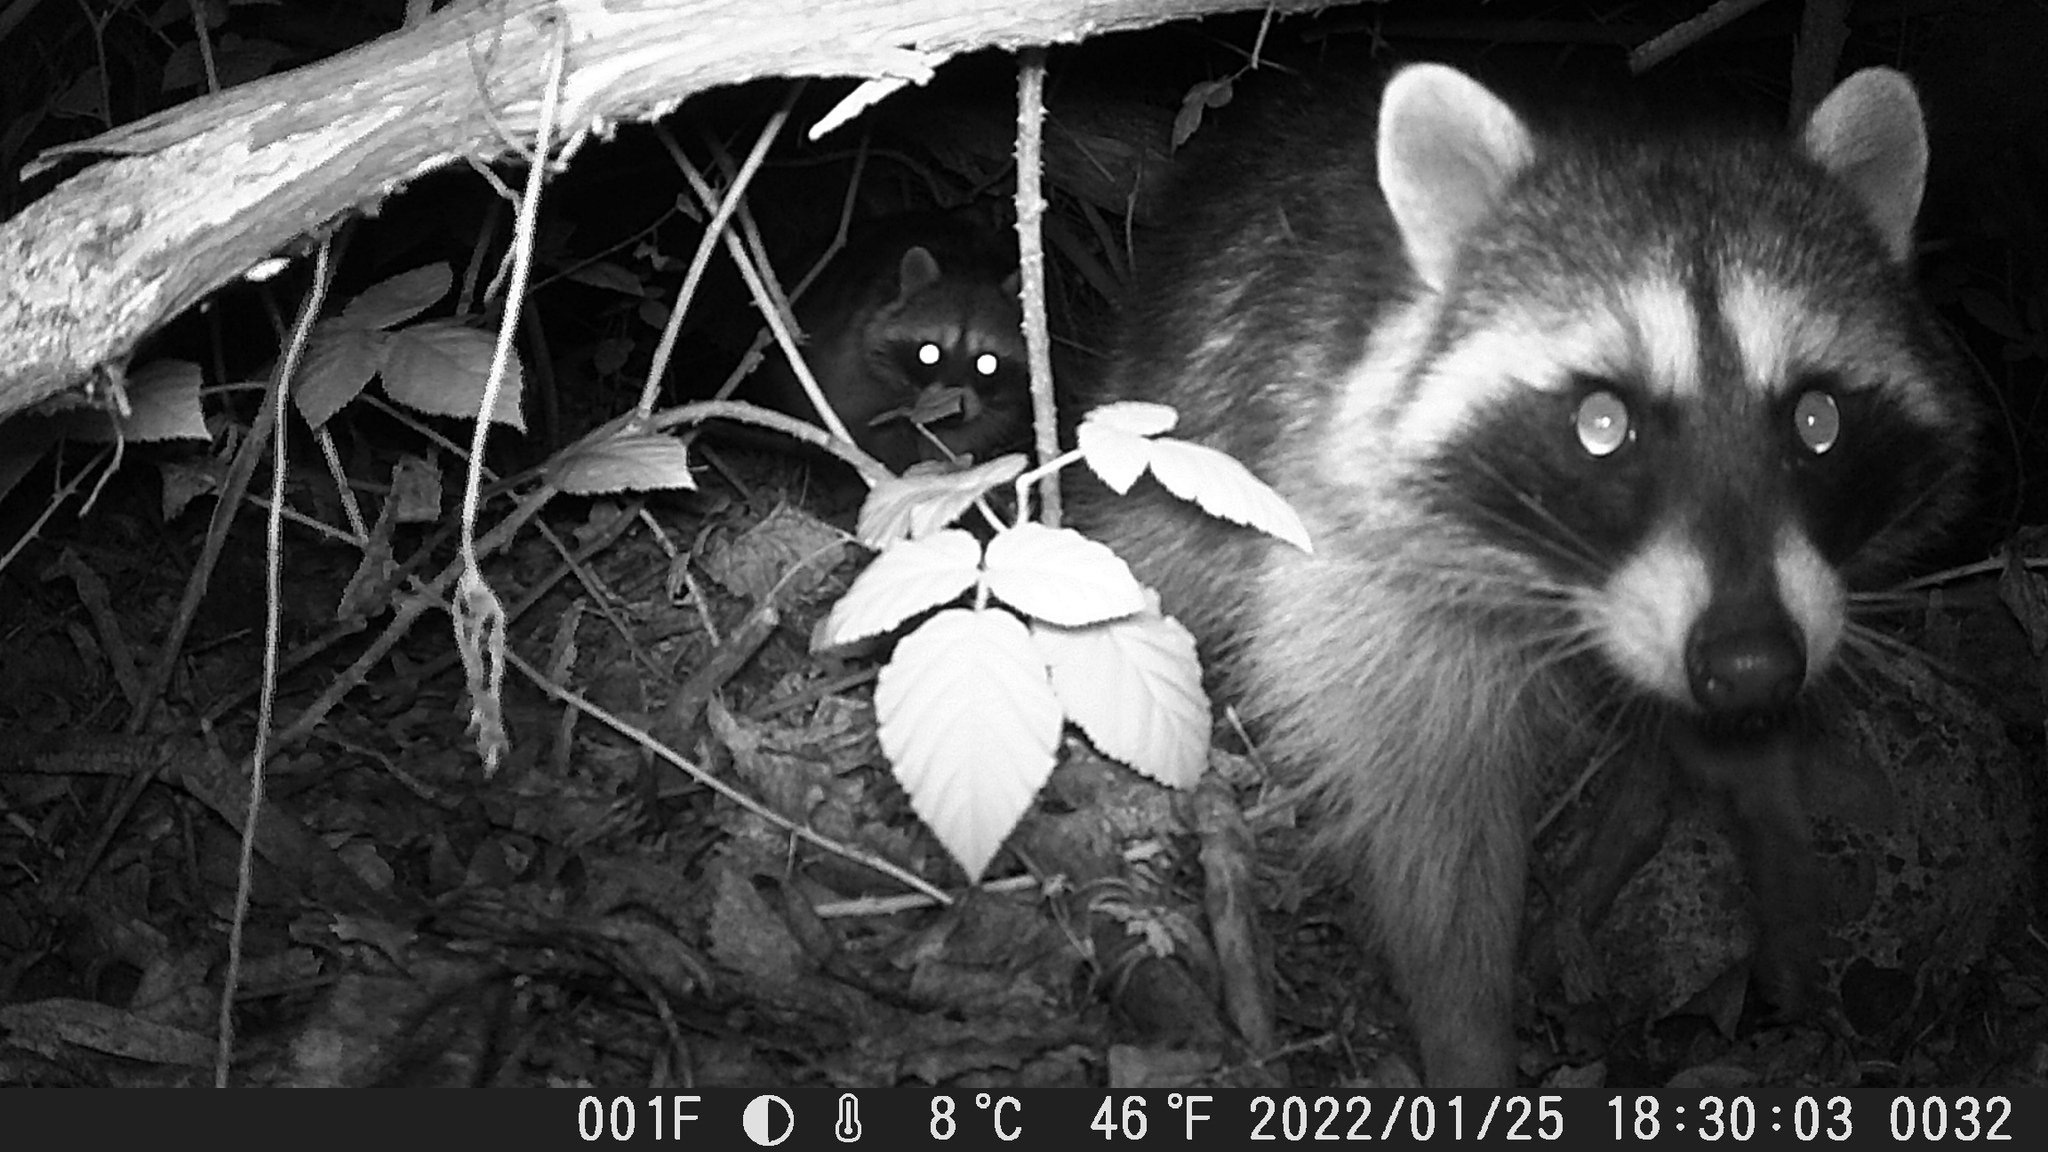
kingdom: Animalia
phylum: Chordata
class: Mammalia
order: Carnivora
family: Procyonidae
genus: Procyon
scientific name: Procyon lotor
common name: Raccoon
